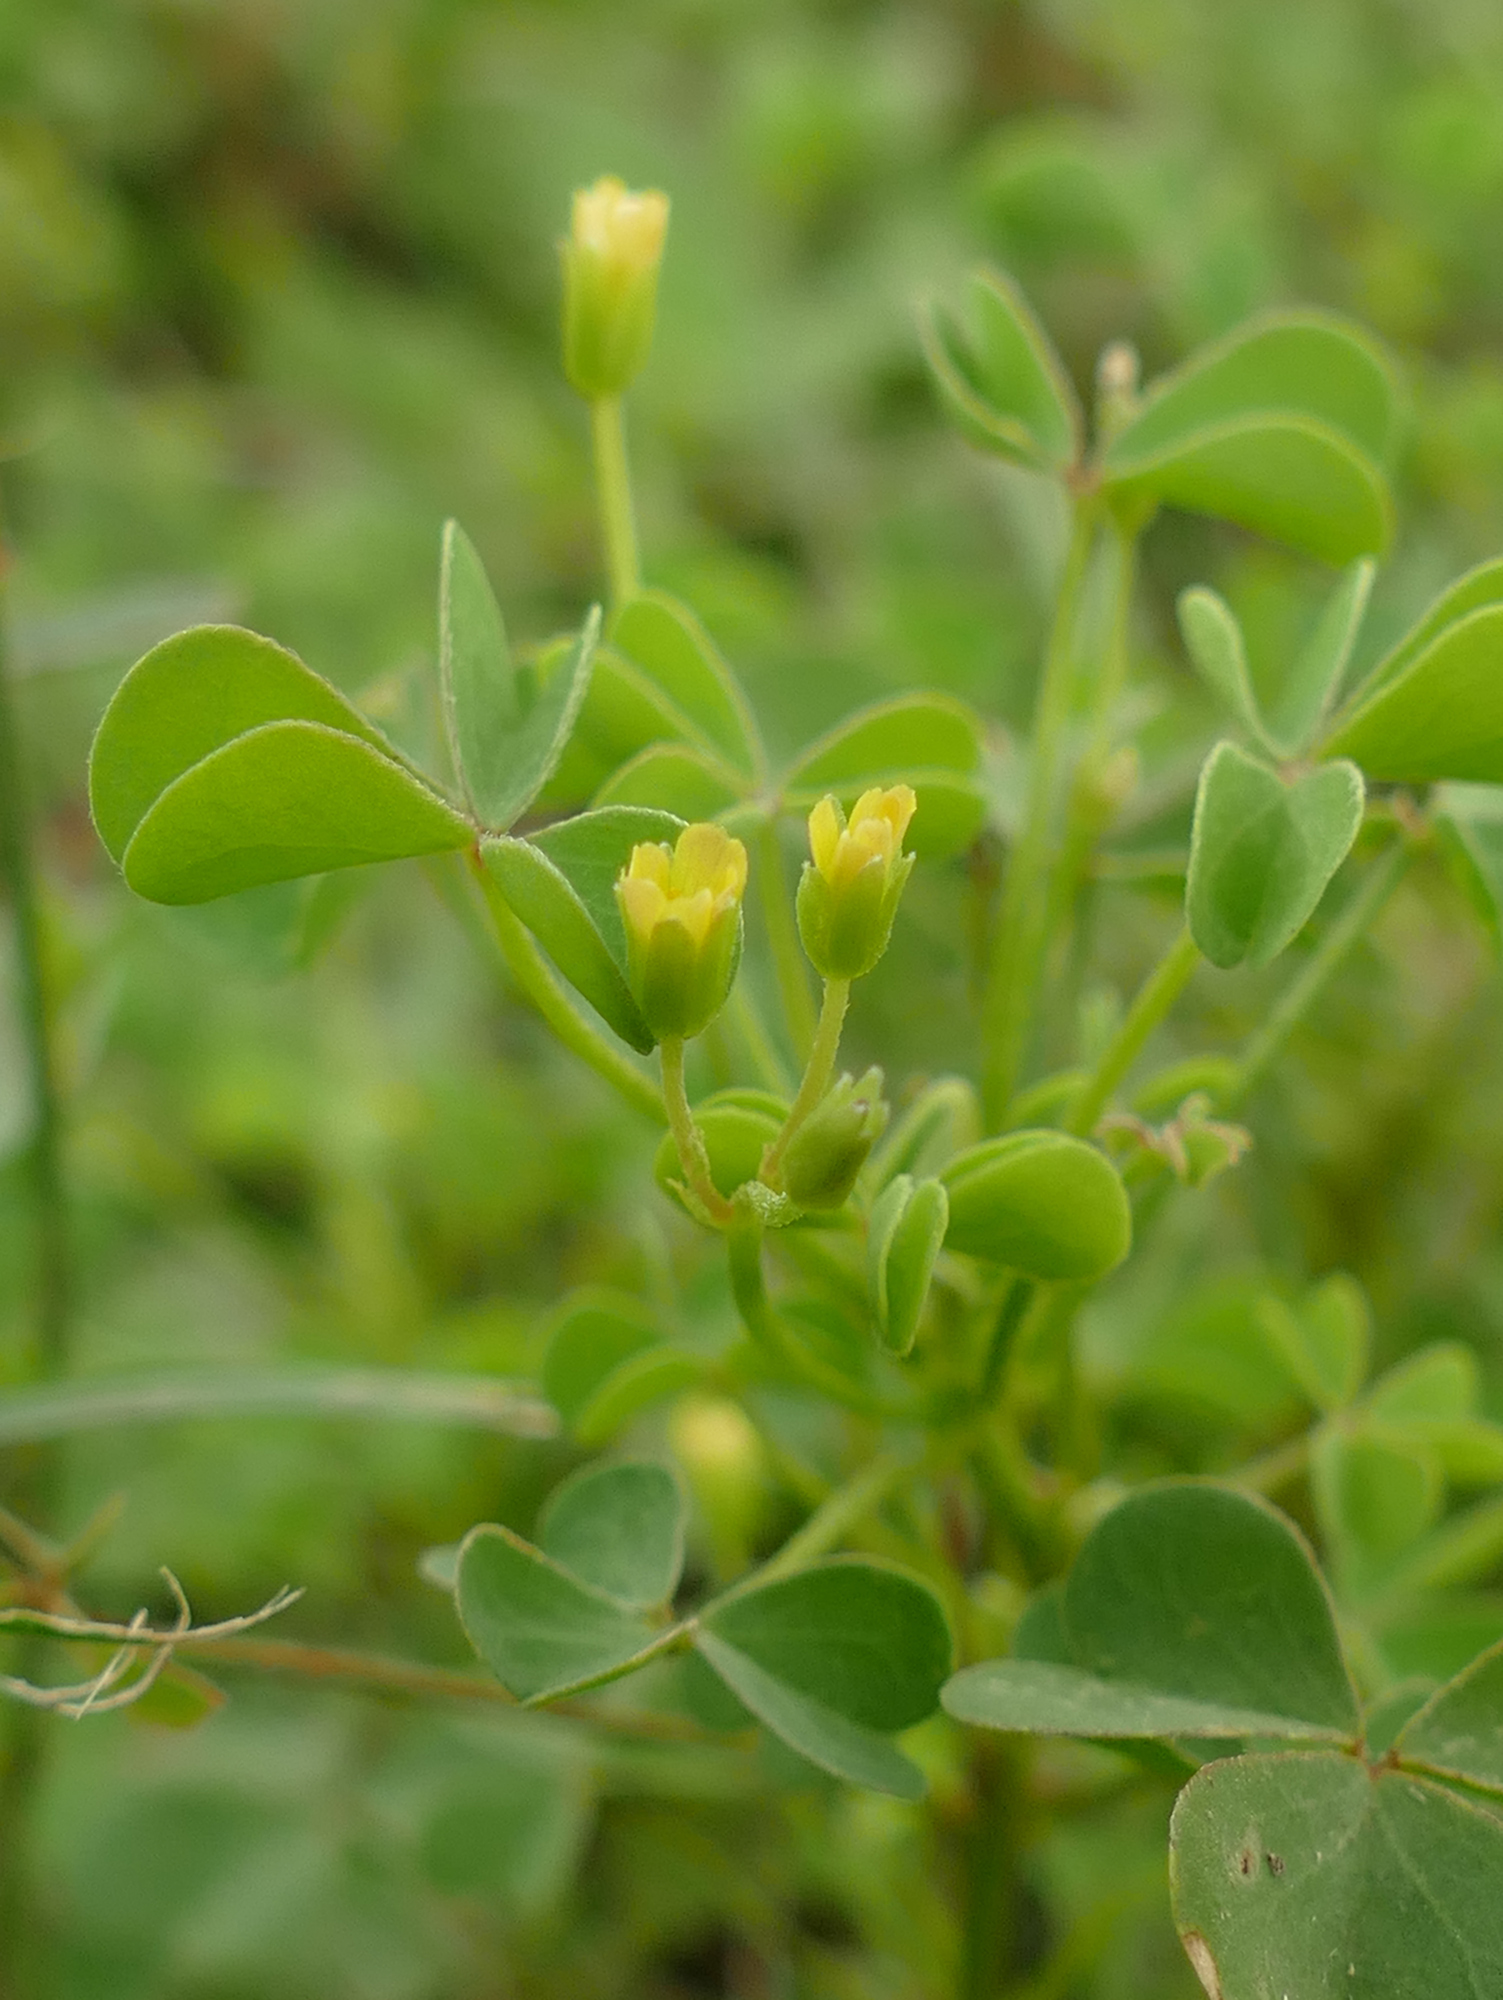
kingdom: Plantae
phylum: Tracheophyta
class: Magnoliopsida
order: Oxalidales
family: Oxalidaceae
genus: Oxalis
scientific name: Oxalis dillenii
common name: Sussex yellow-sorrel
